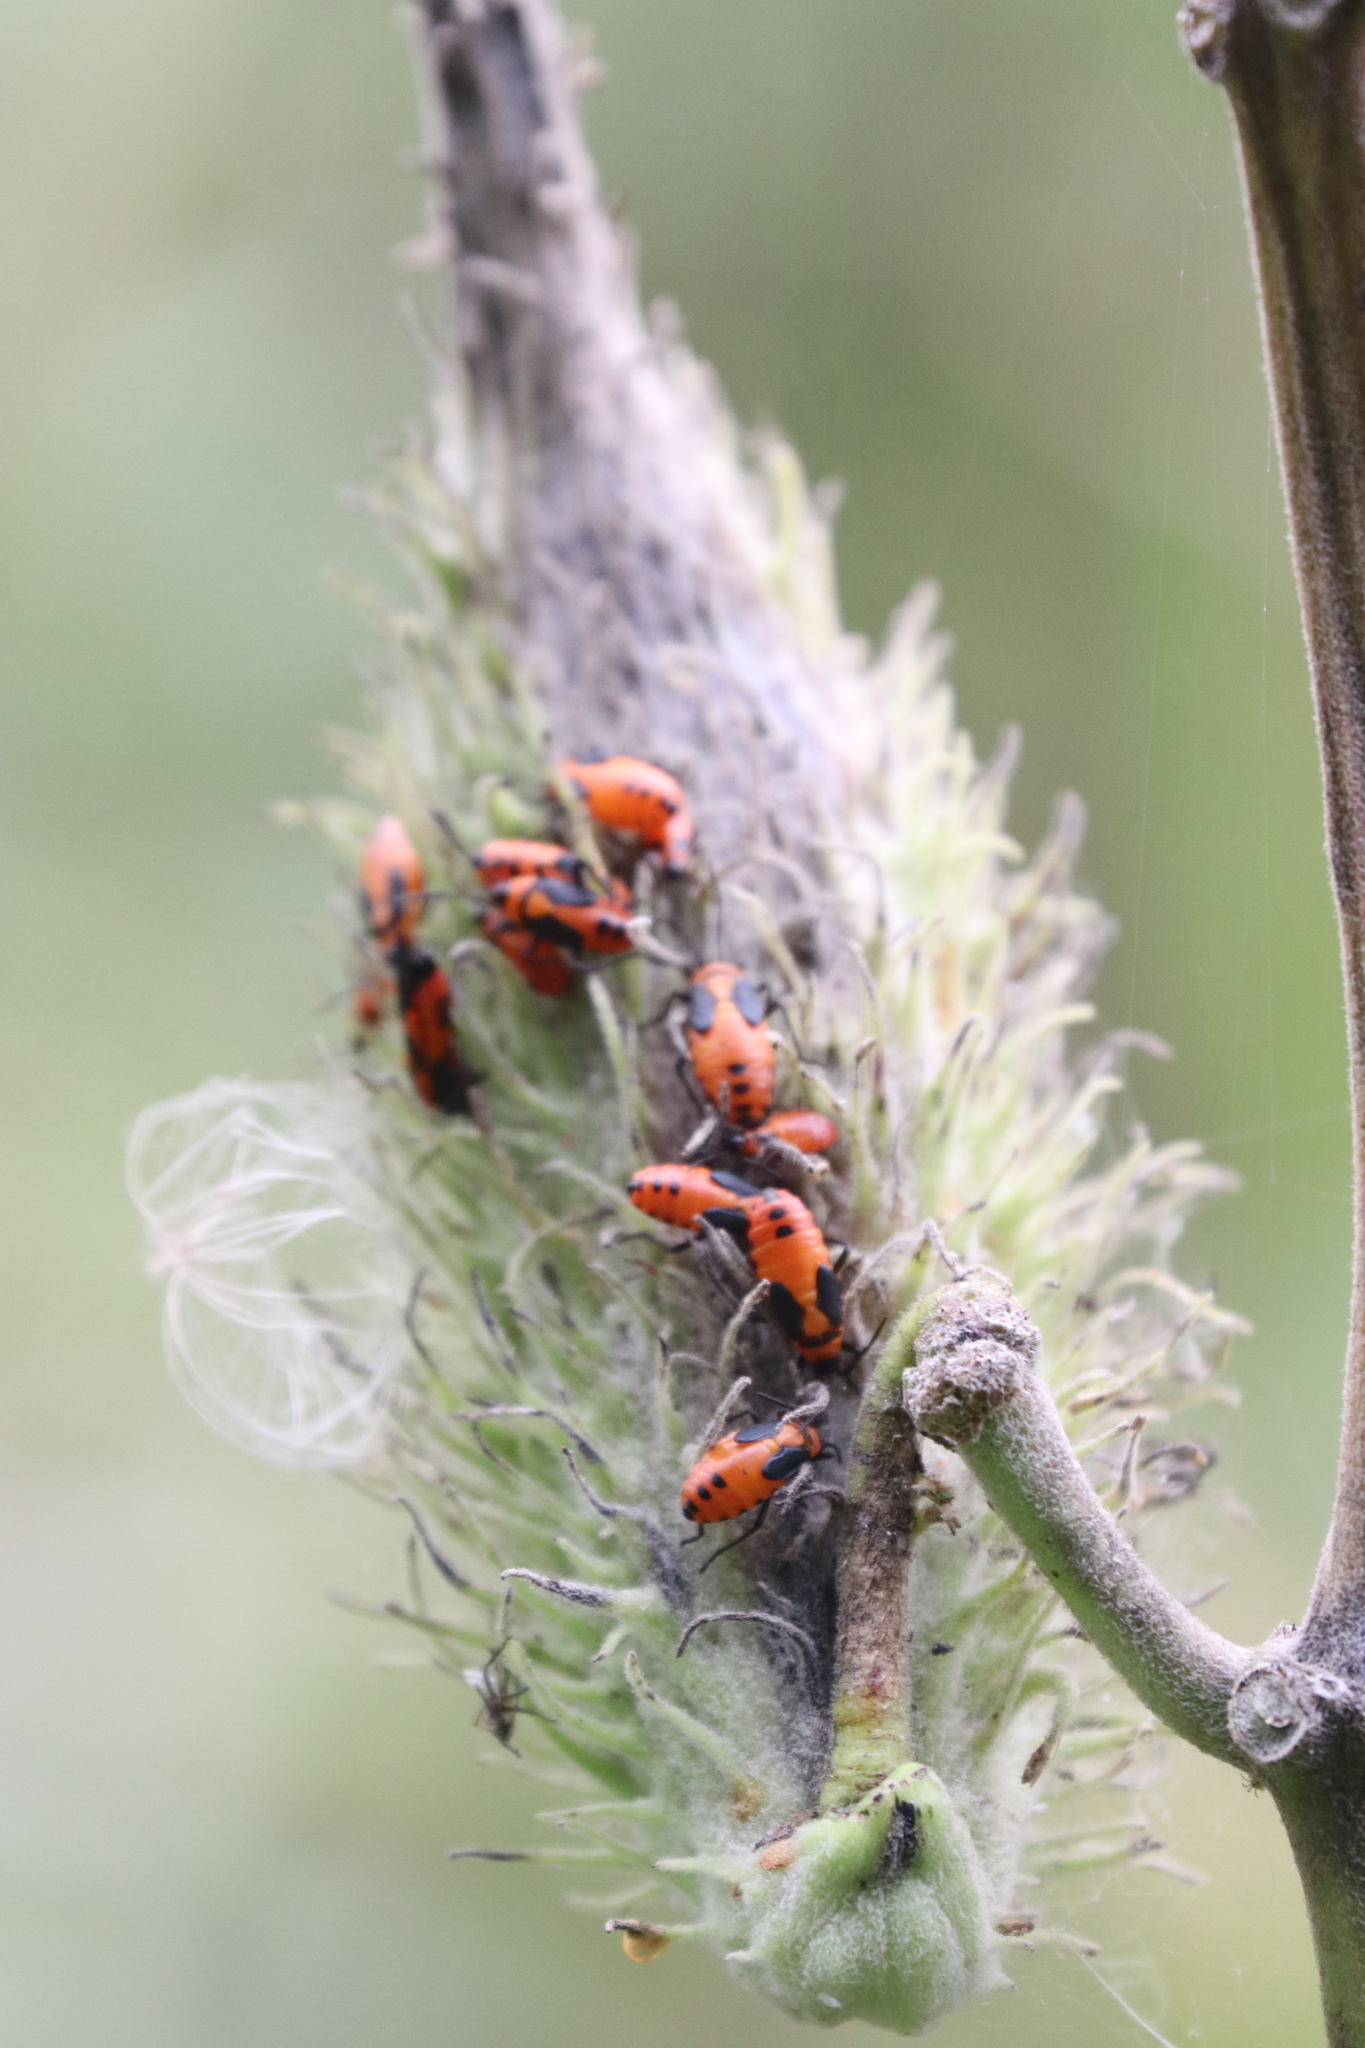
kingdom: Animalia
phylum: Arthropoda
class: Insecta
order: Hemiptera
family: Lygaeidae
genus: Oncopeltus
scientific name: Oncopeltus fasciatus
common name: Large milkweed bug
